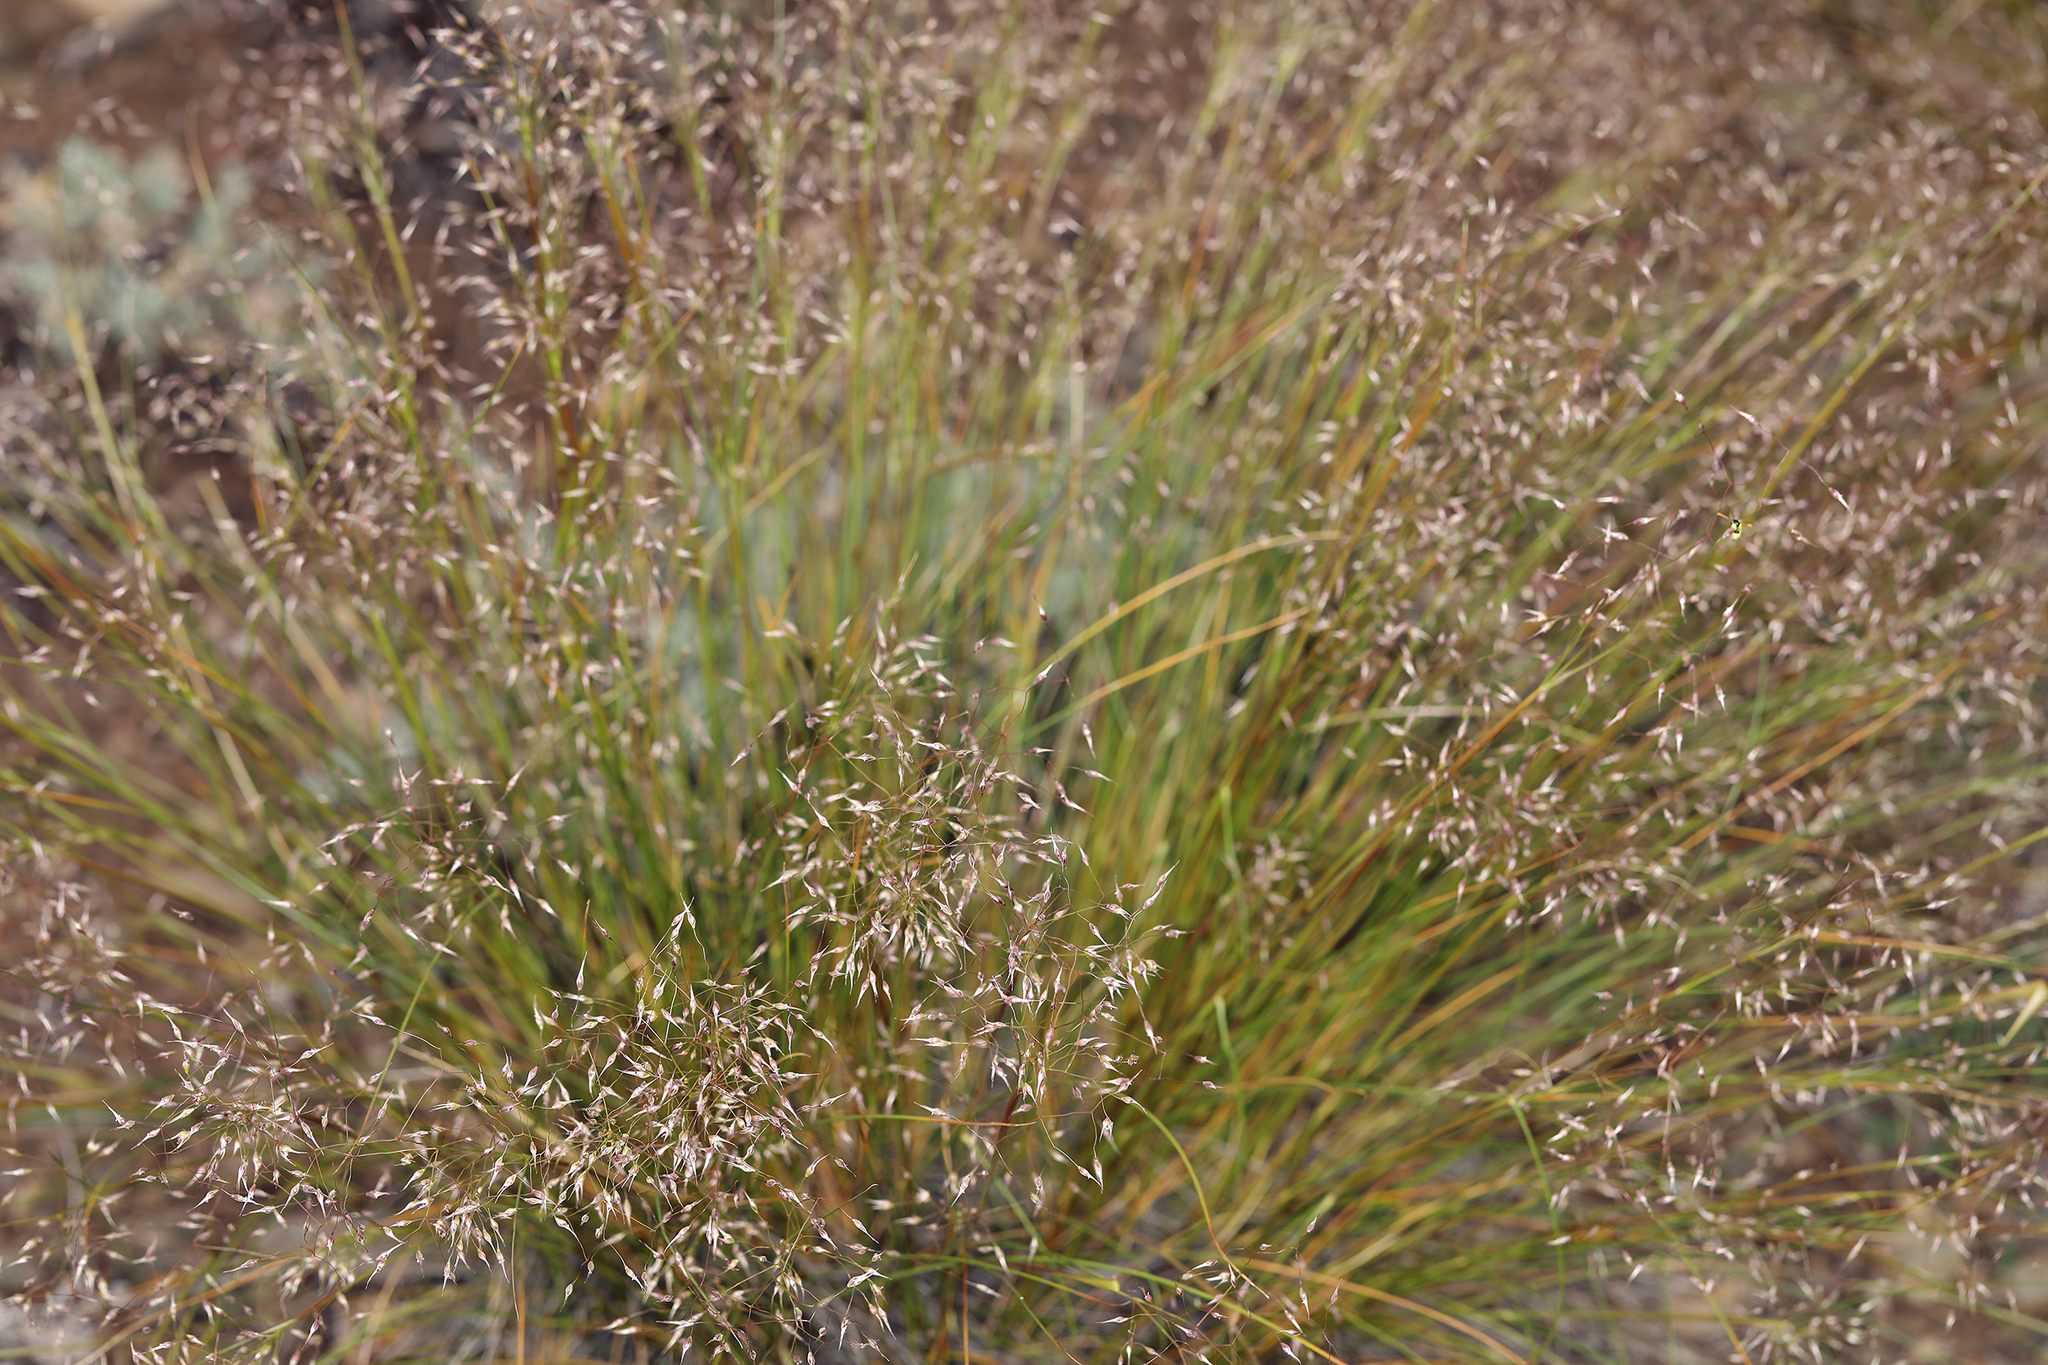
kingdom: Plantae
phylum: Tracheophyta
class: Liliopsida
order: Poales
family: Poaceae
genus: Eriocoma
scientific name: Eriocoma hymenoides
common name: Indian mountain ricegrass
